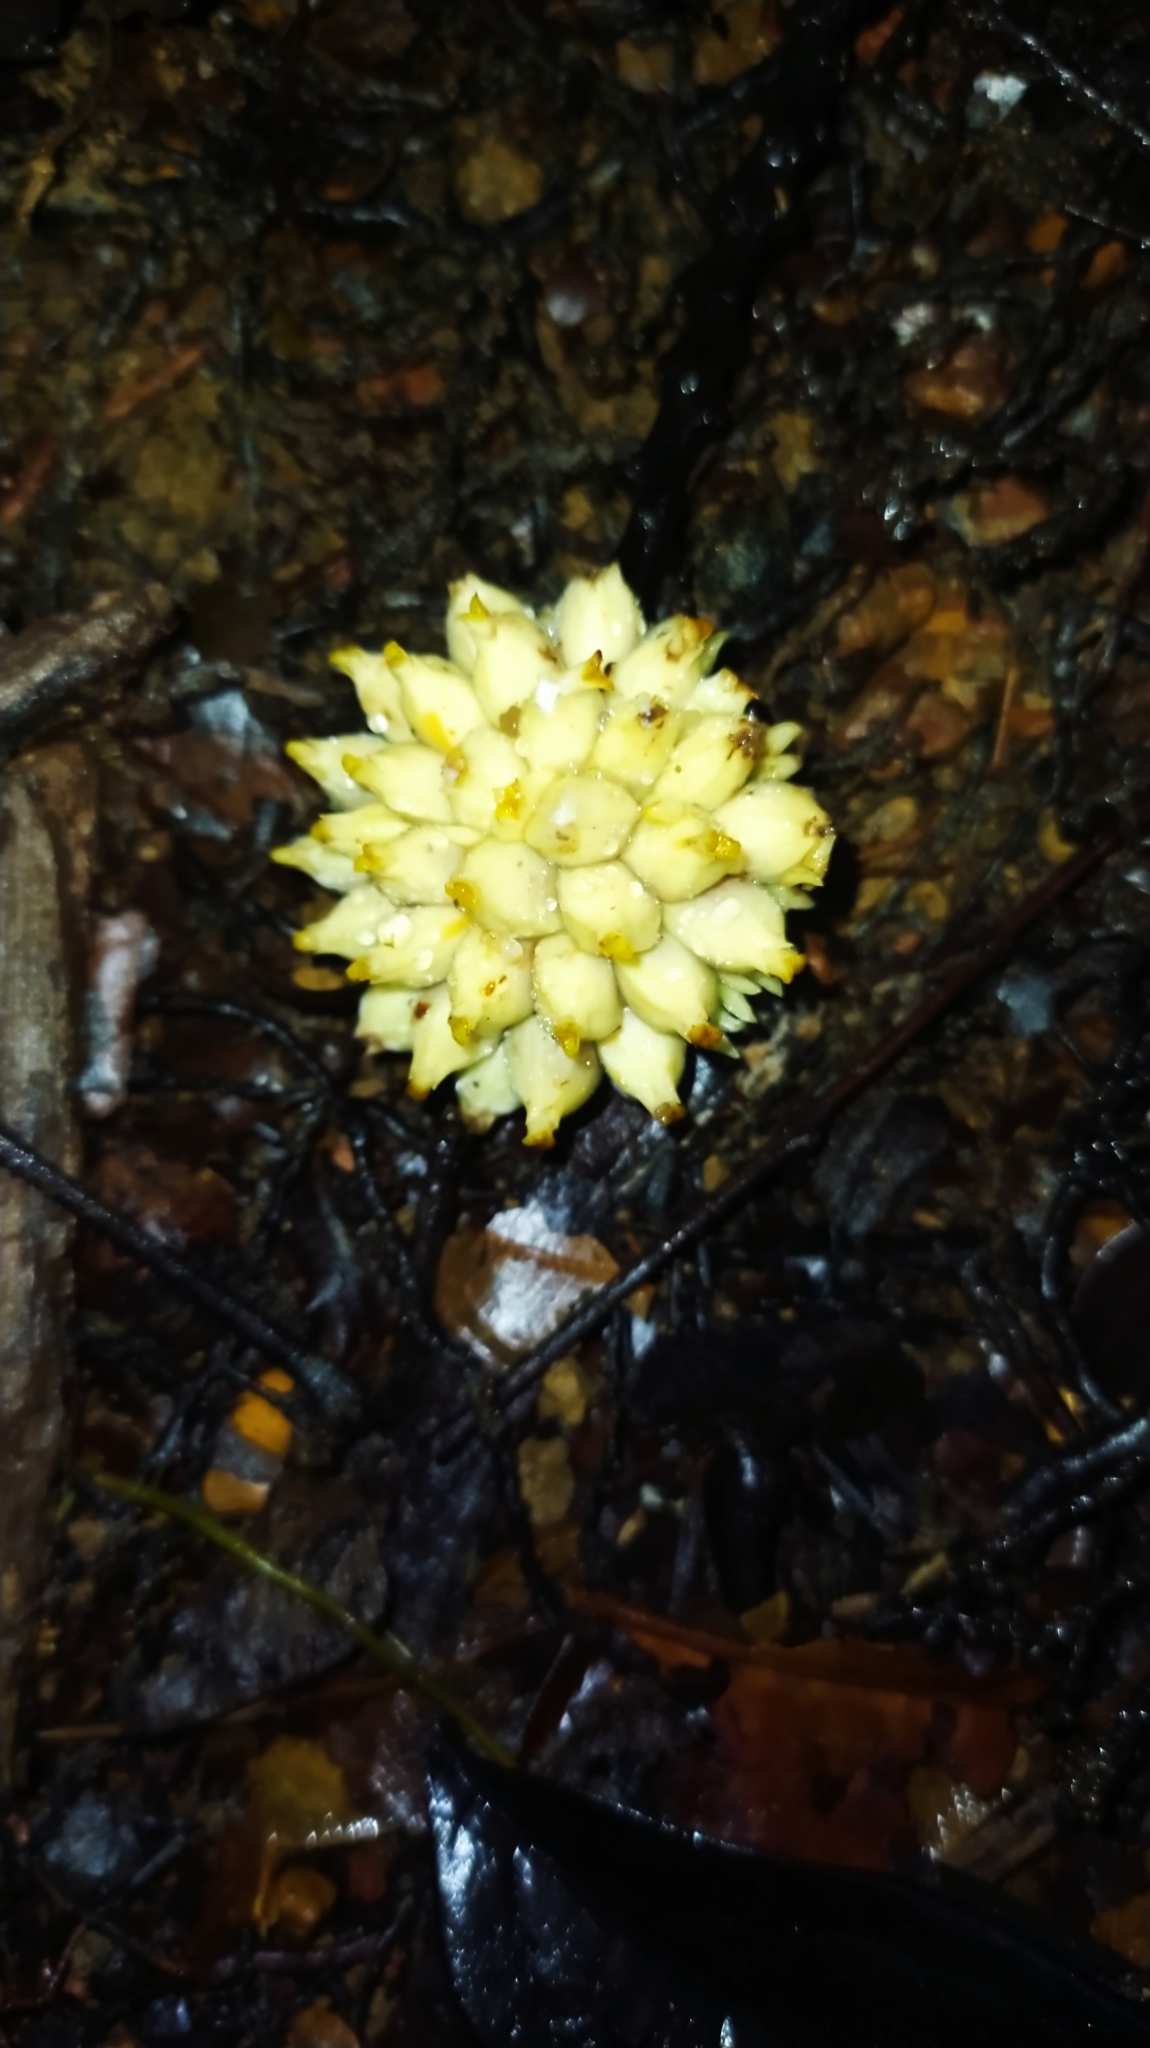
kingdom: Plantae
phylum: Tracheophyta
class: Magnoliopsida
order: Rosales
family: Moraceae
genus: Perebea
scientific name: Perebea guianensis
